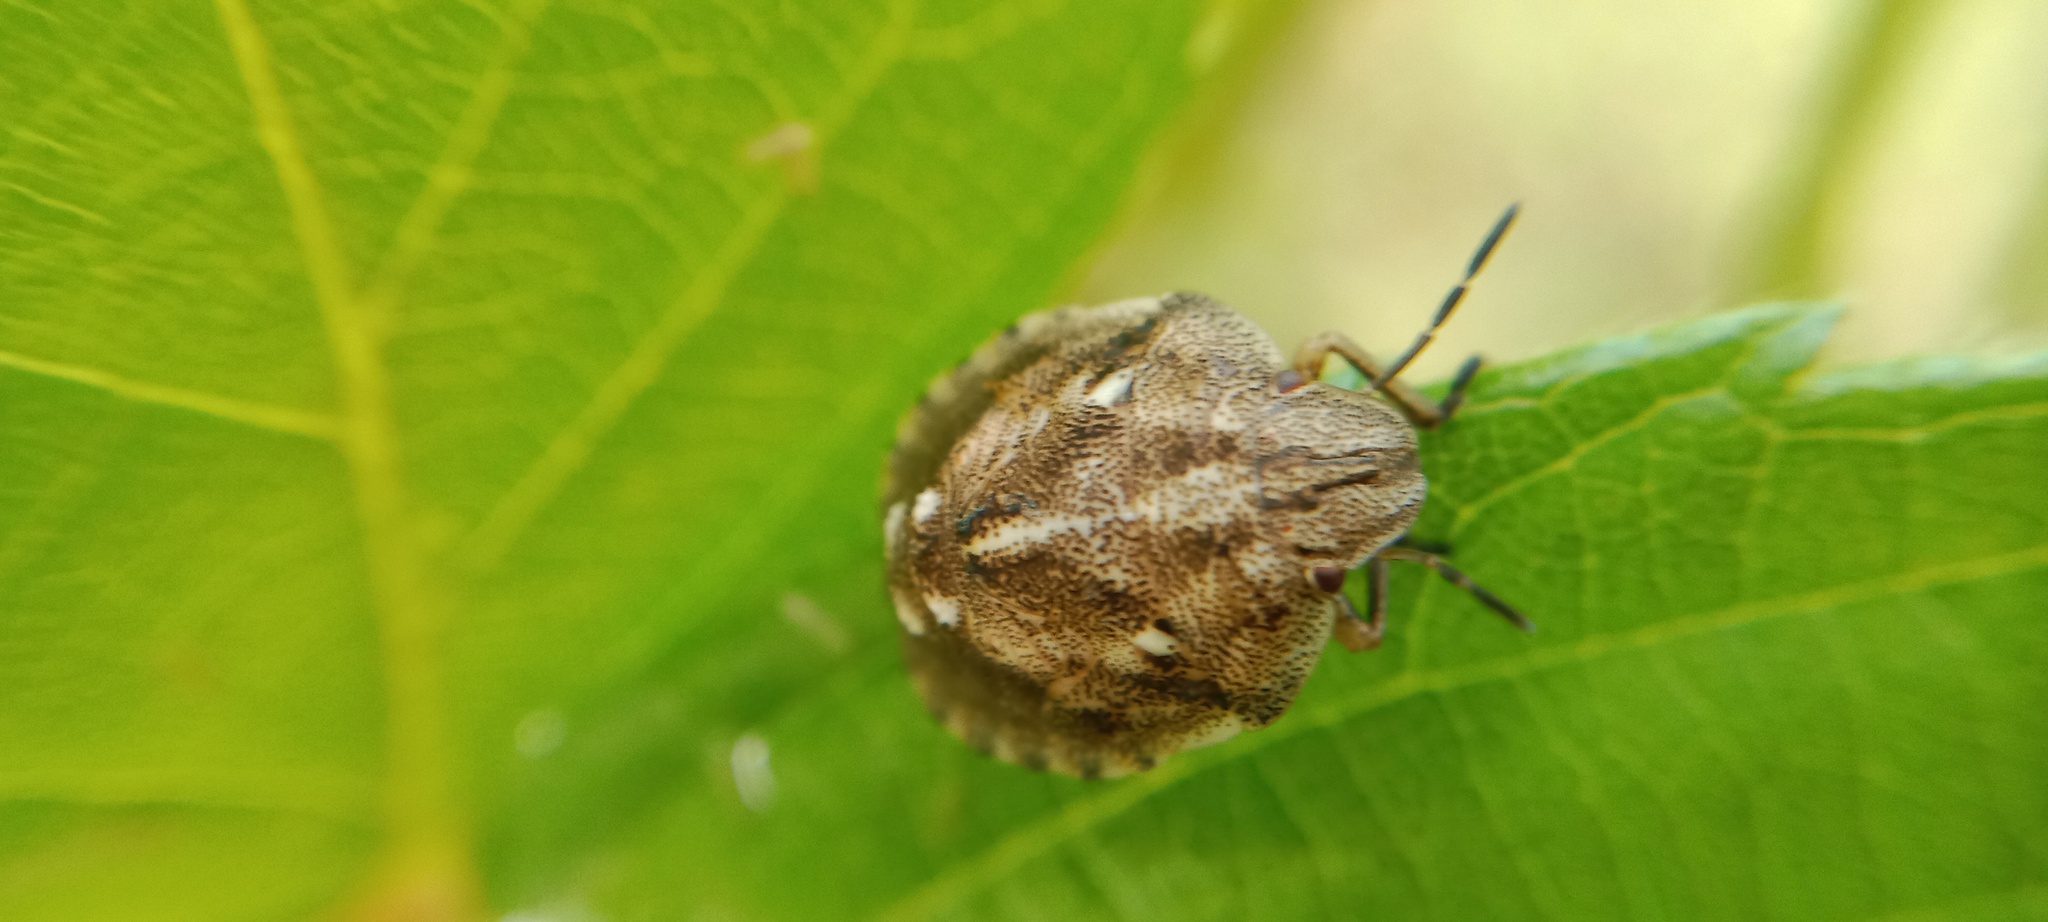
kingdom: Animalia
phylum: Arthropoda
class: Insecta
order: Hemiptera
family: Scutelleridae
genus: Eurygaster
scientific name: Eurygaster testudinaria
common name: Tortoise bug
